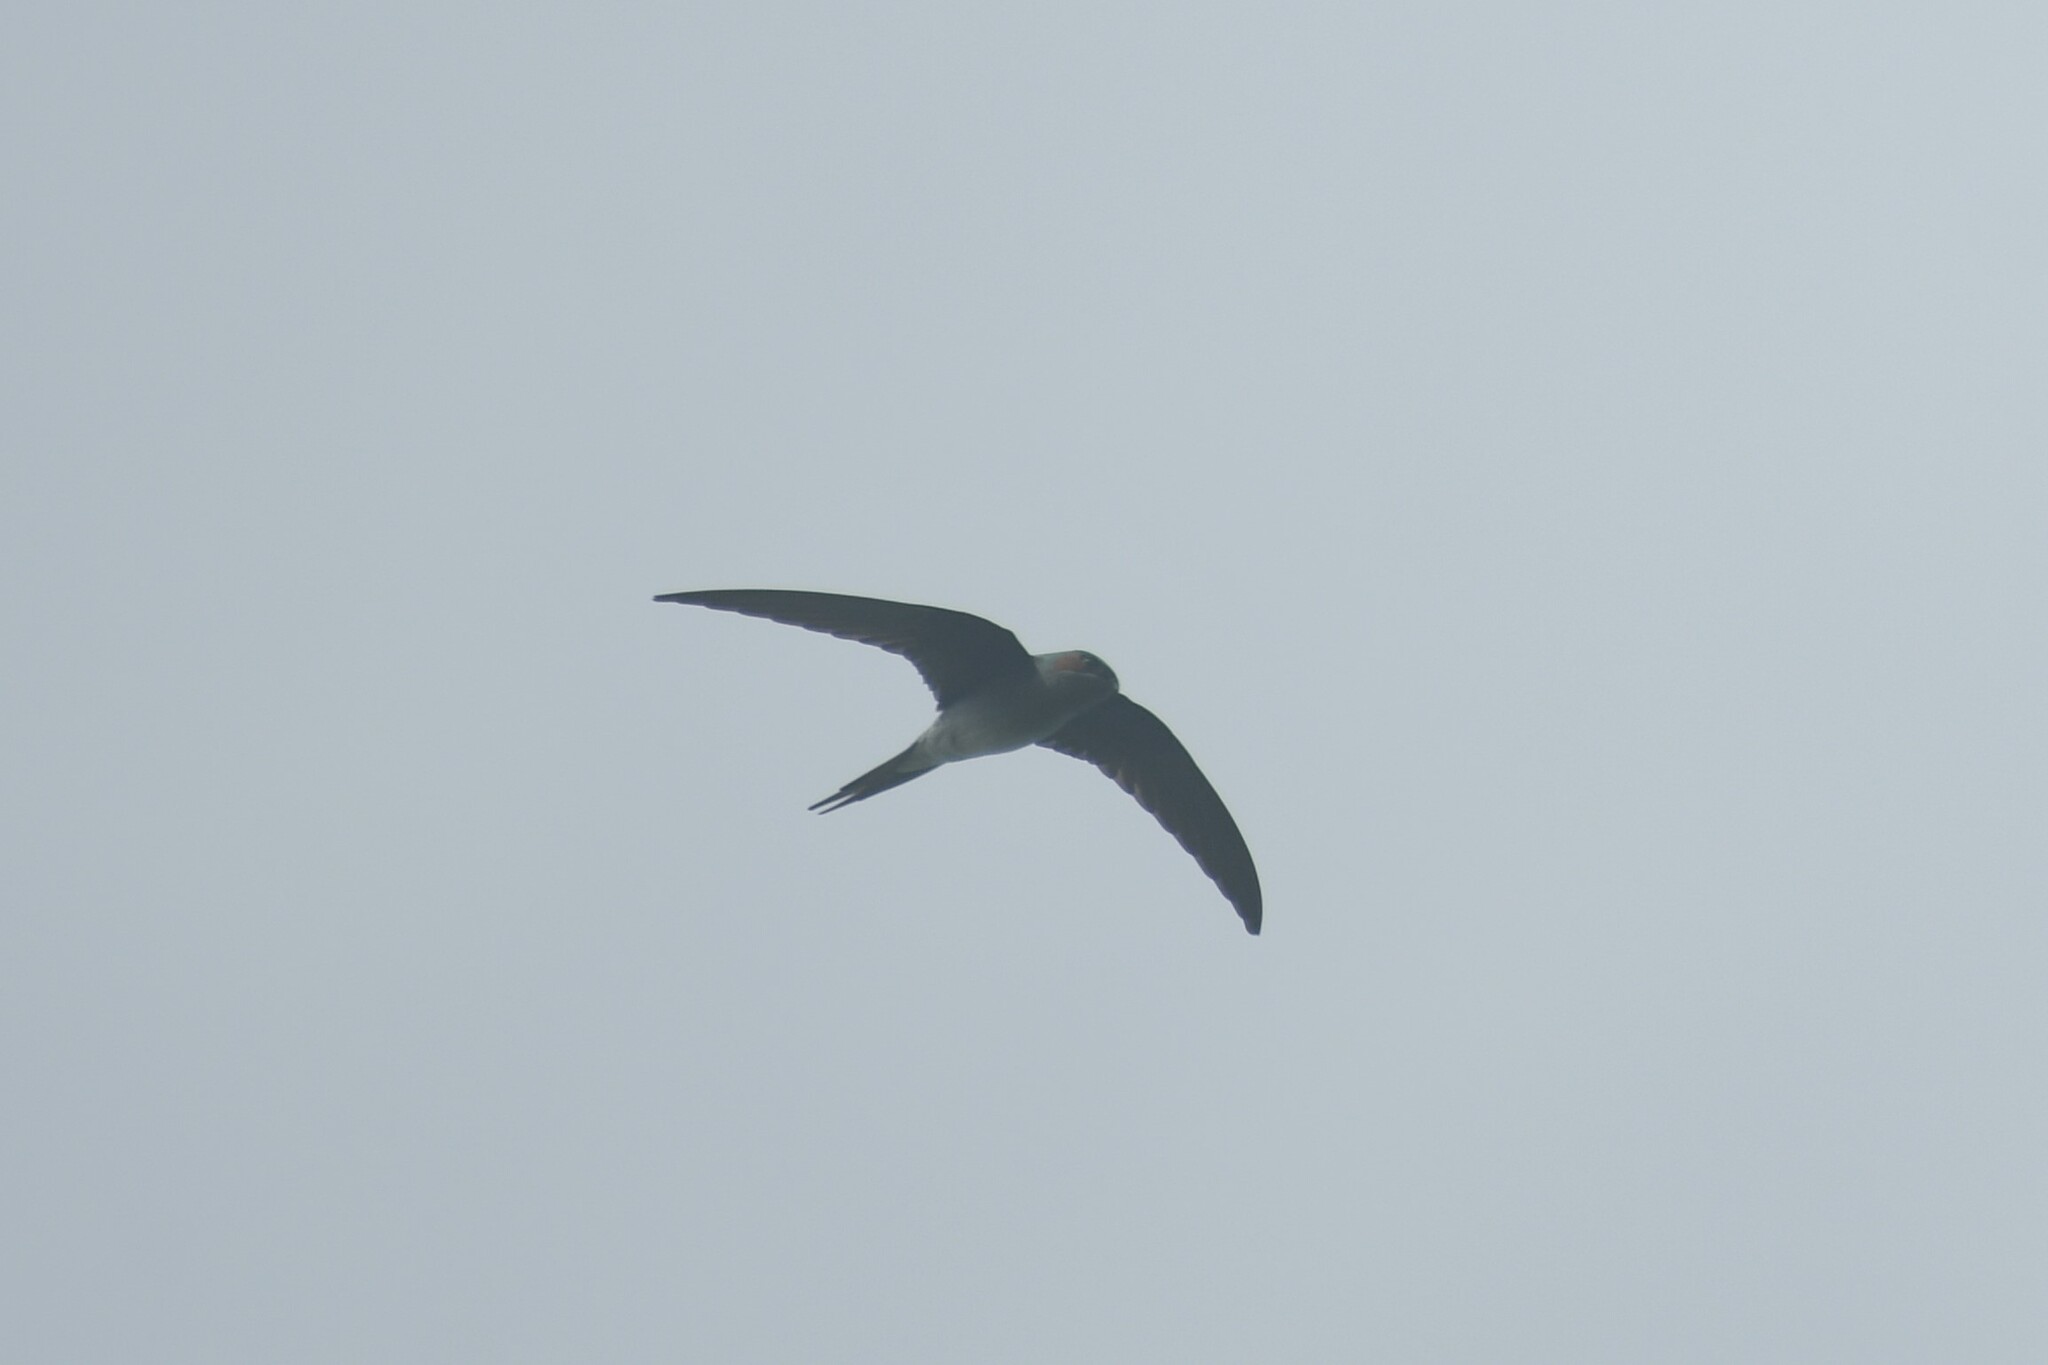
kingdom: Animalia
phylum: Chordata
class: Aves
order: Apodiformes
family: Hemiprocnidae
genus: Hemiprocne
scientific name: Hemiprocne longipennis
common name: Grey-rumped treeswift
